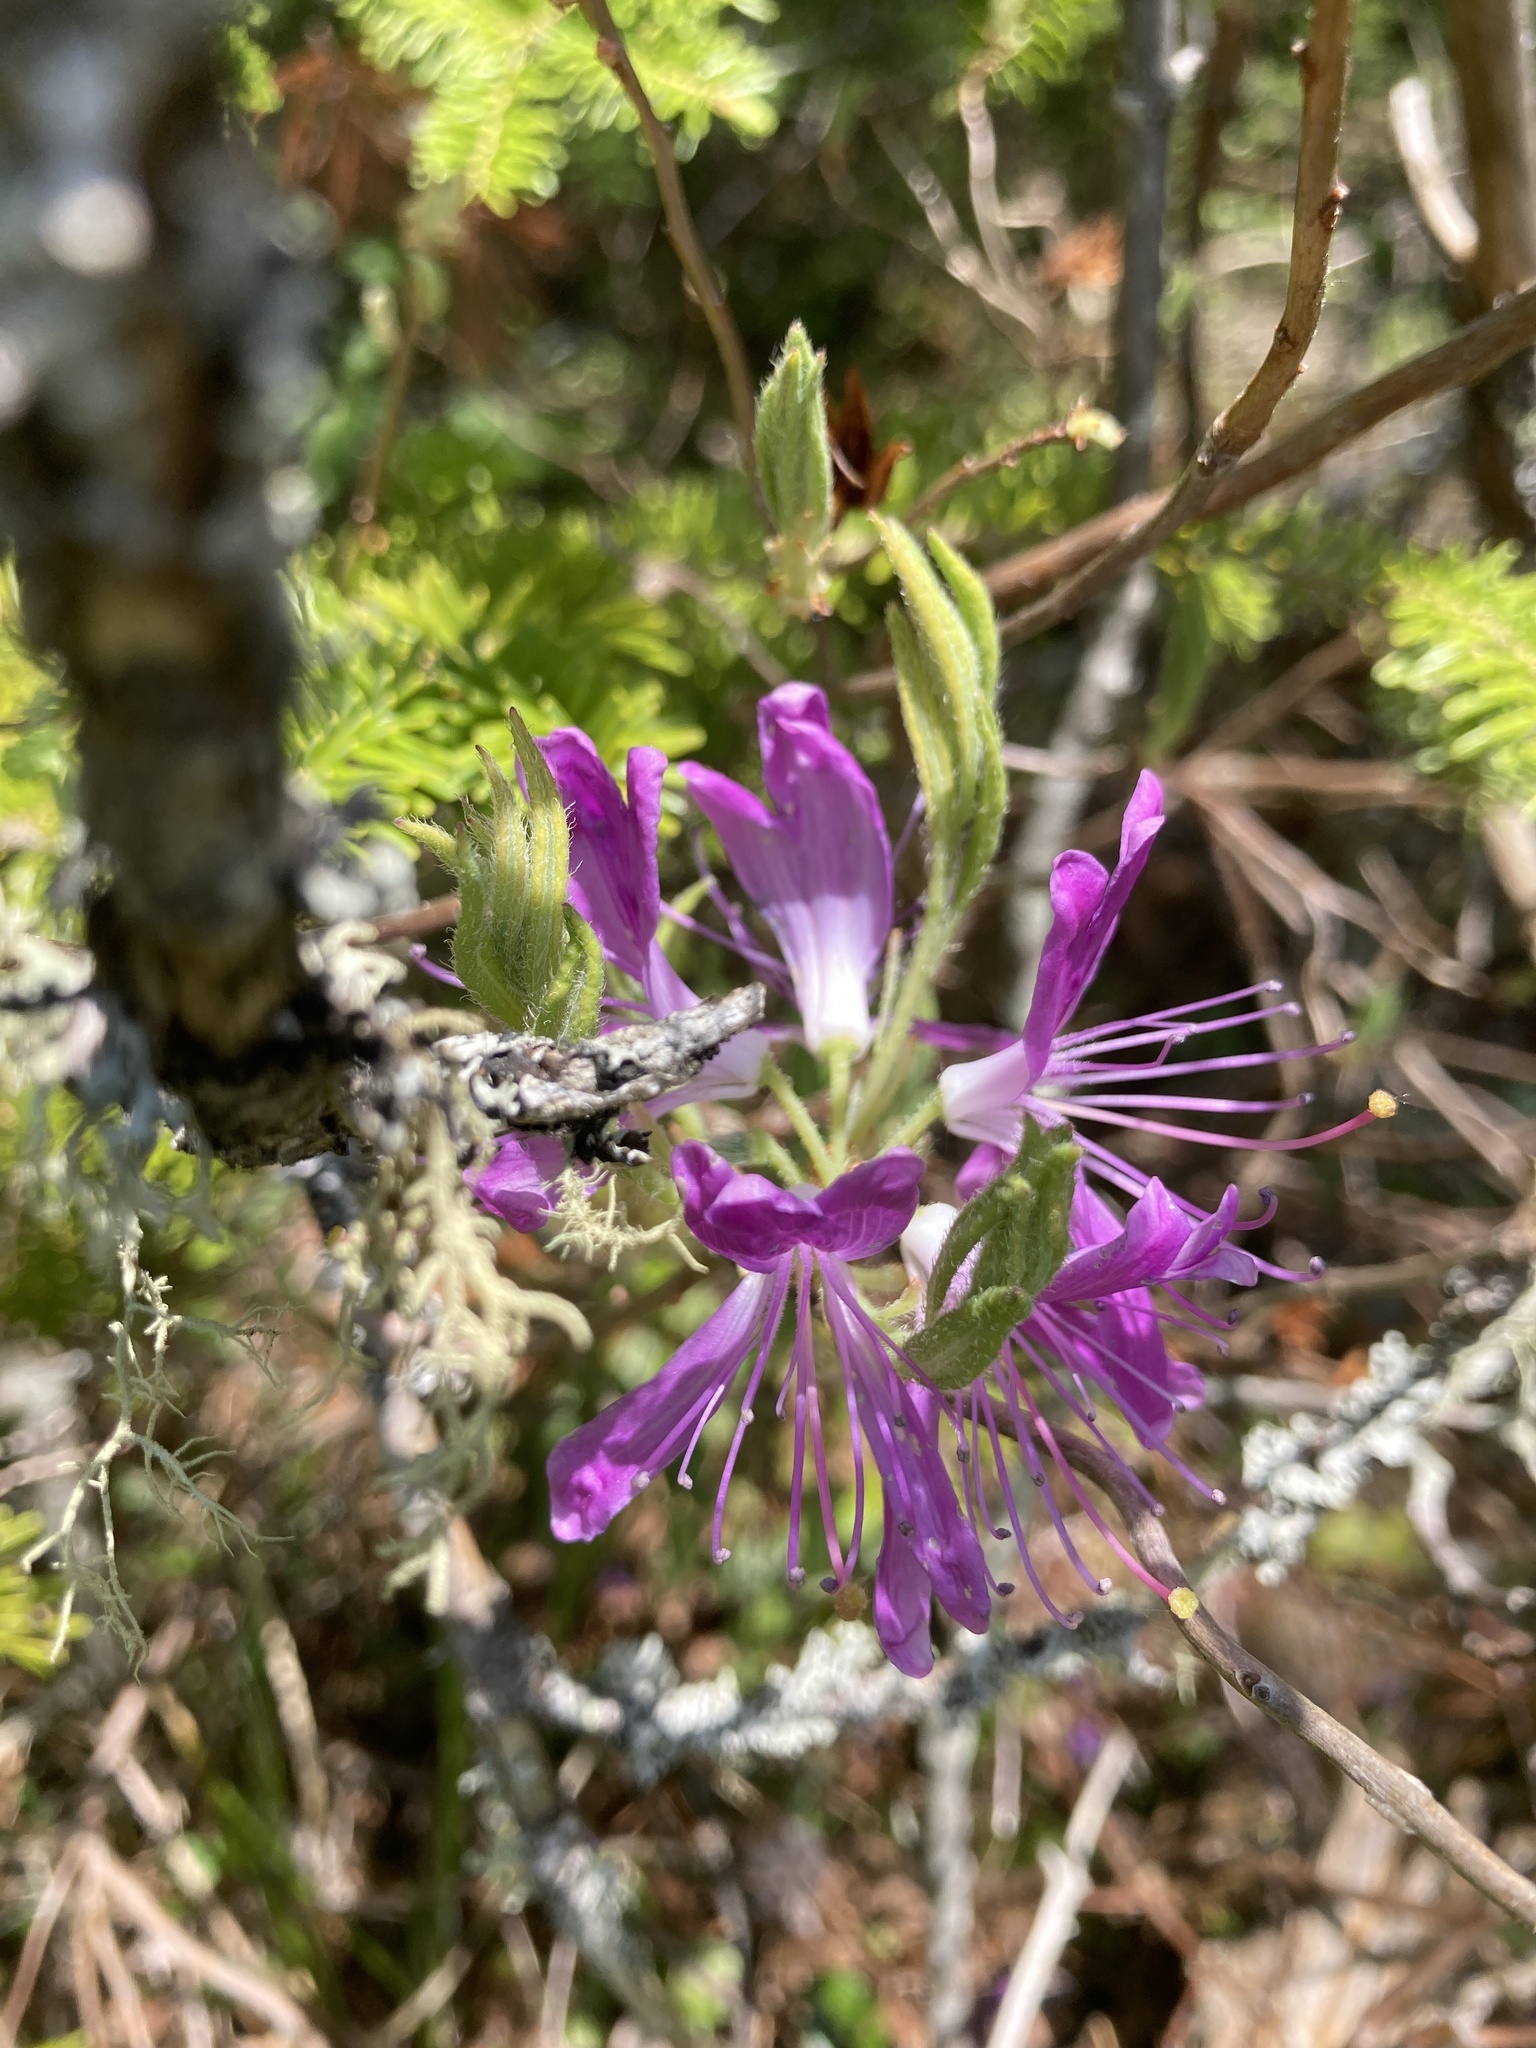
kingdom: Plantae
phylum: Tracheophyta
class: Magnoliopsida
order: Ericales
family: Ericaceae
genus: Rhododendron
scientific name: Rhododendron canadense
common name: Rhodora
